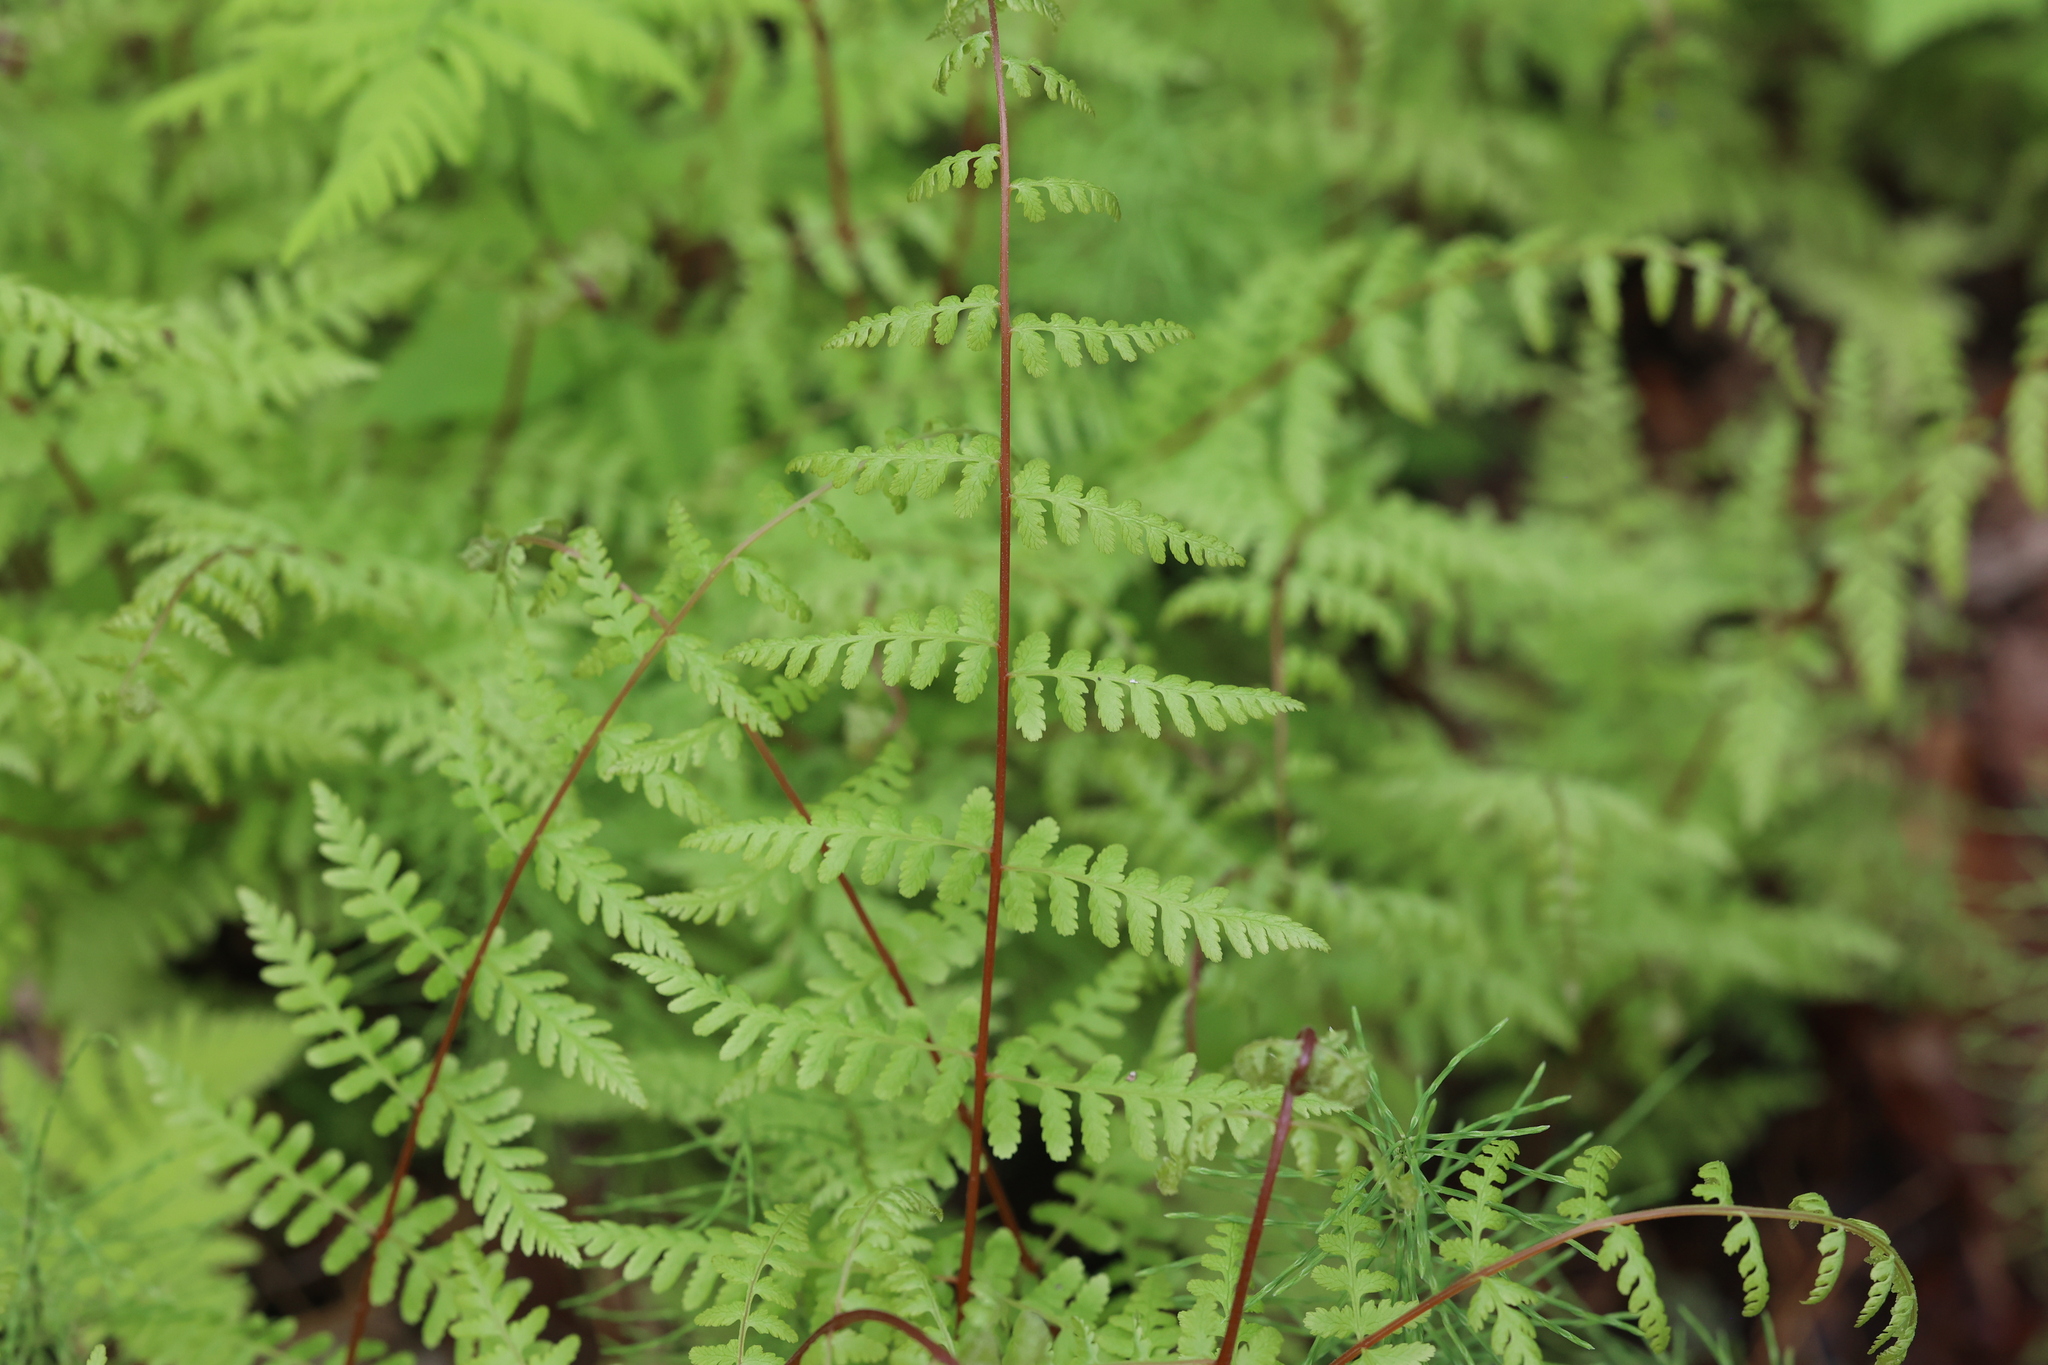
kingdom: Plantae
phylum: Tracheophyta
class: Polypodiopsida
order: Polypodiales
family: Cystopteridaceae
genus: Cystopteris
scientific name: Cystopteris bulbifera
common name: Bulblet bladder fern
